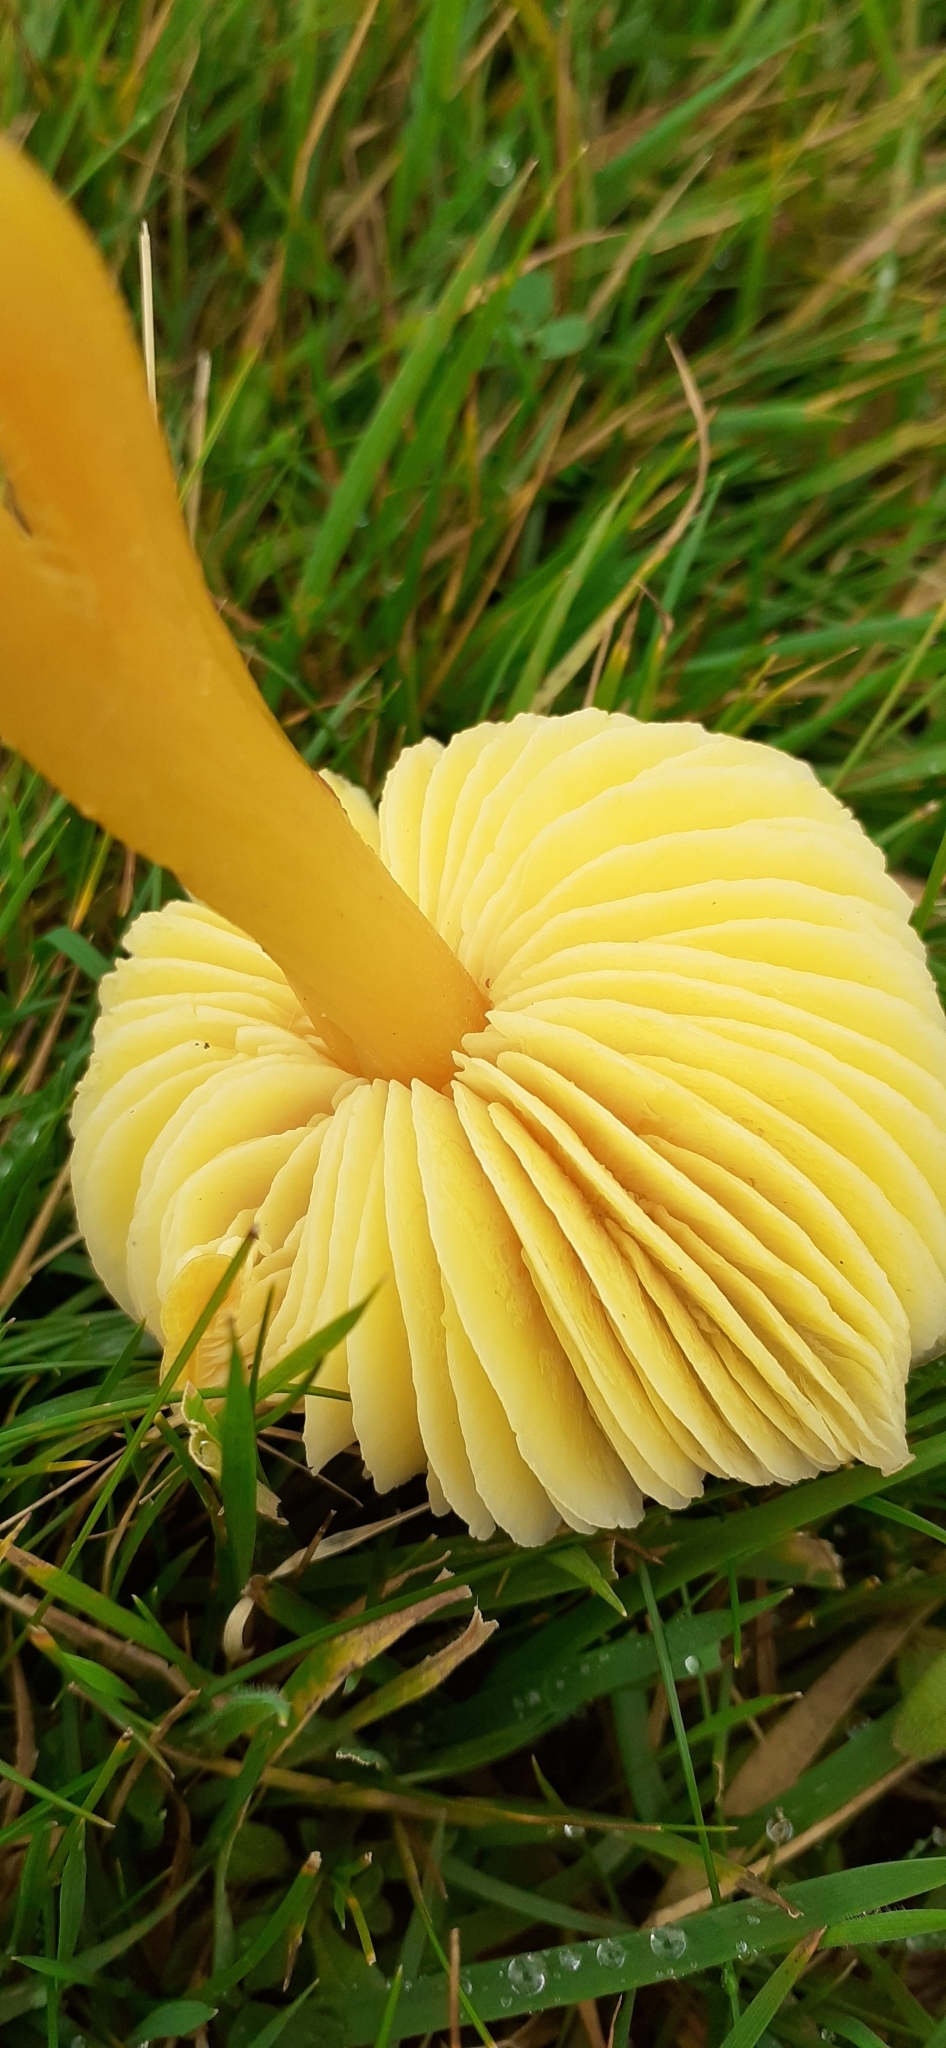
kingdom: Fungi
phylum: Basidiomycota
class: Agaricomycetes
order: Agaricales
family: Hygrophoraceae
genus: Hygrocybe
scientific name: Hygrocybe chlorophana
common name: Golden waxcap
